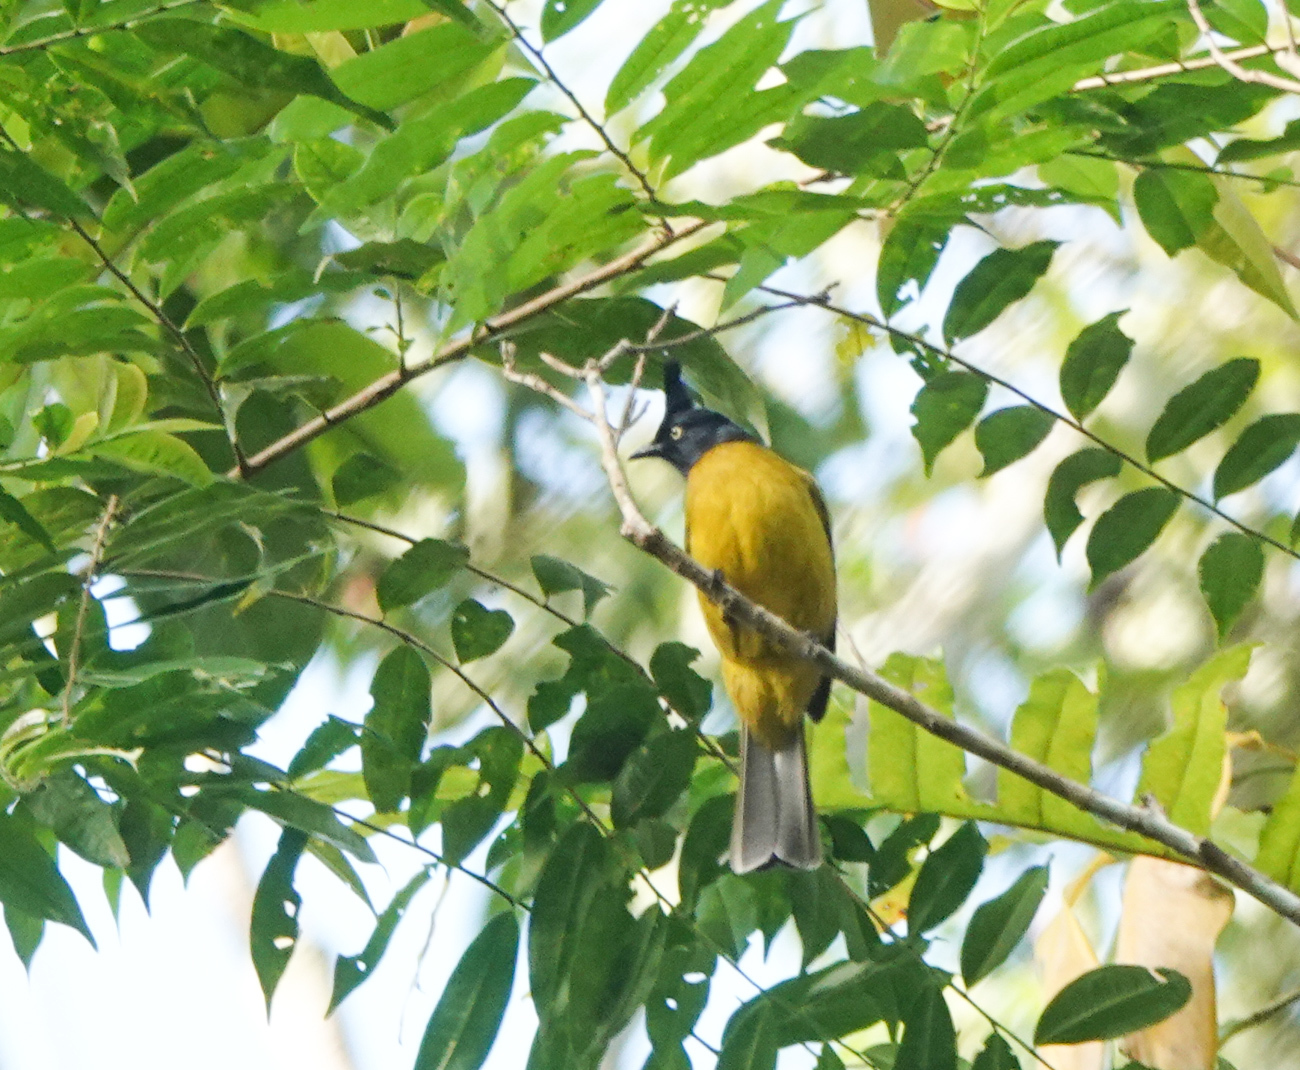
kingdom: Animalia
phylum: Chordata
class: Aves
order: Passeriformes
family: Pycnonotidae
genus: Pycnonotus
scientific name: Pycnonotus flaviventris
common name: Black-crested bulbul
